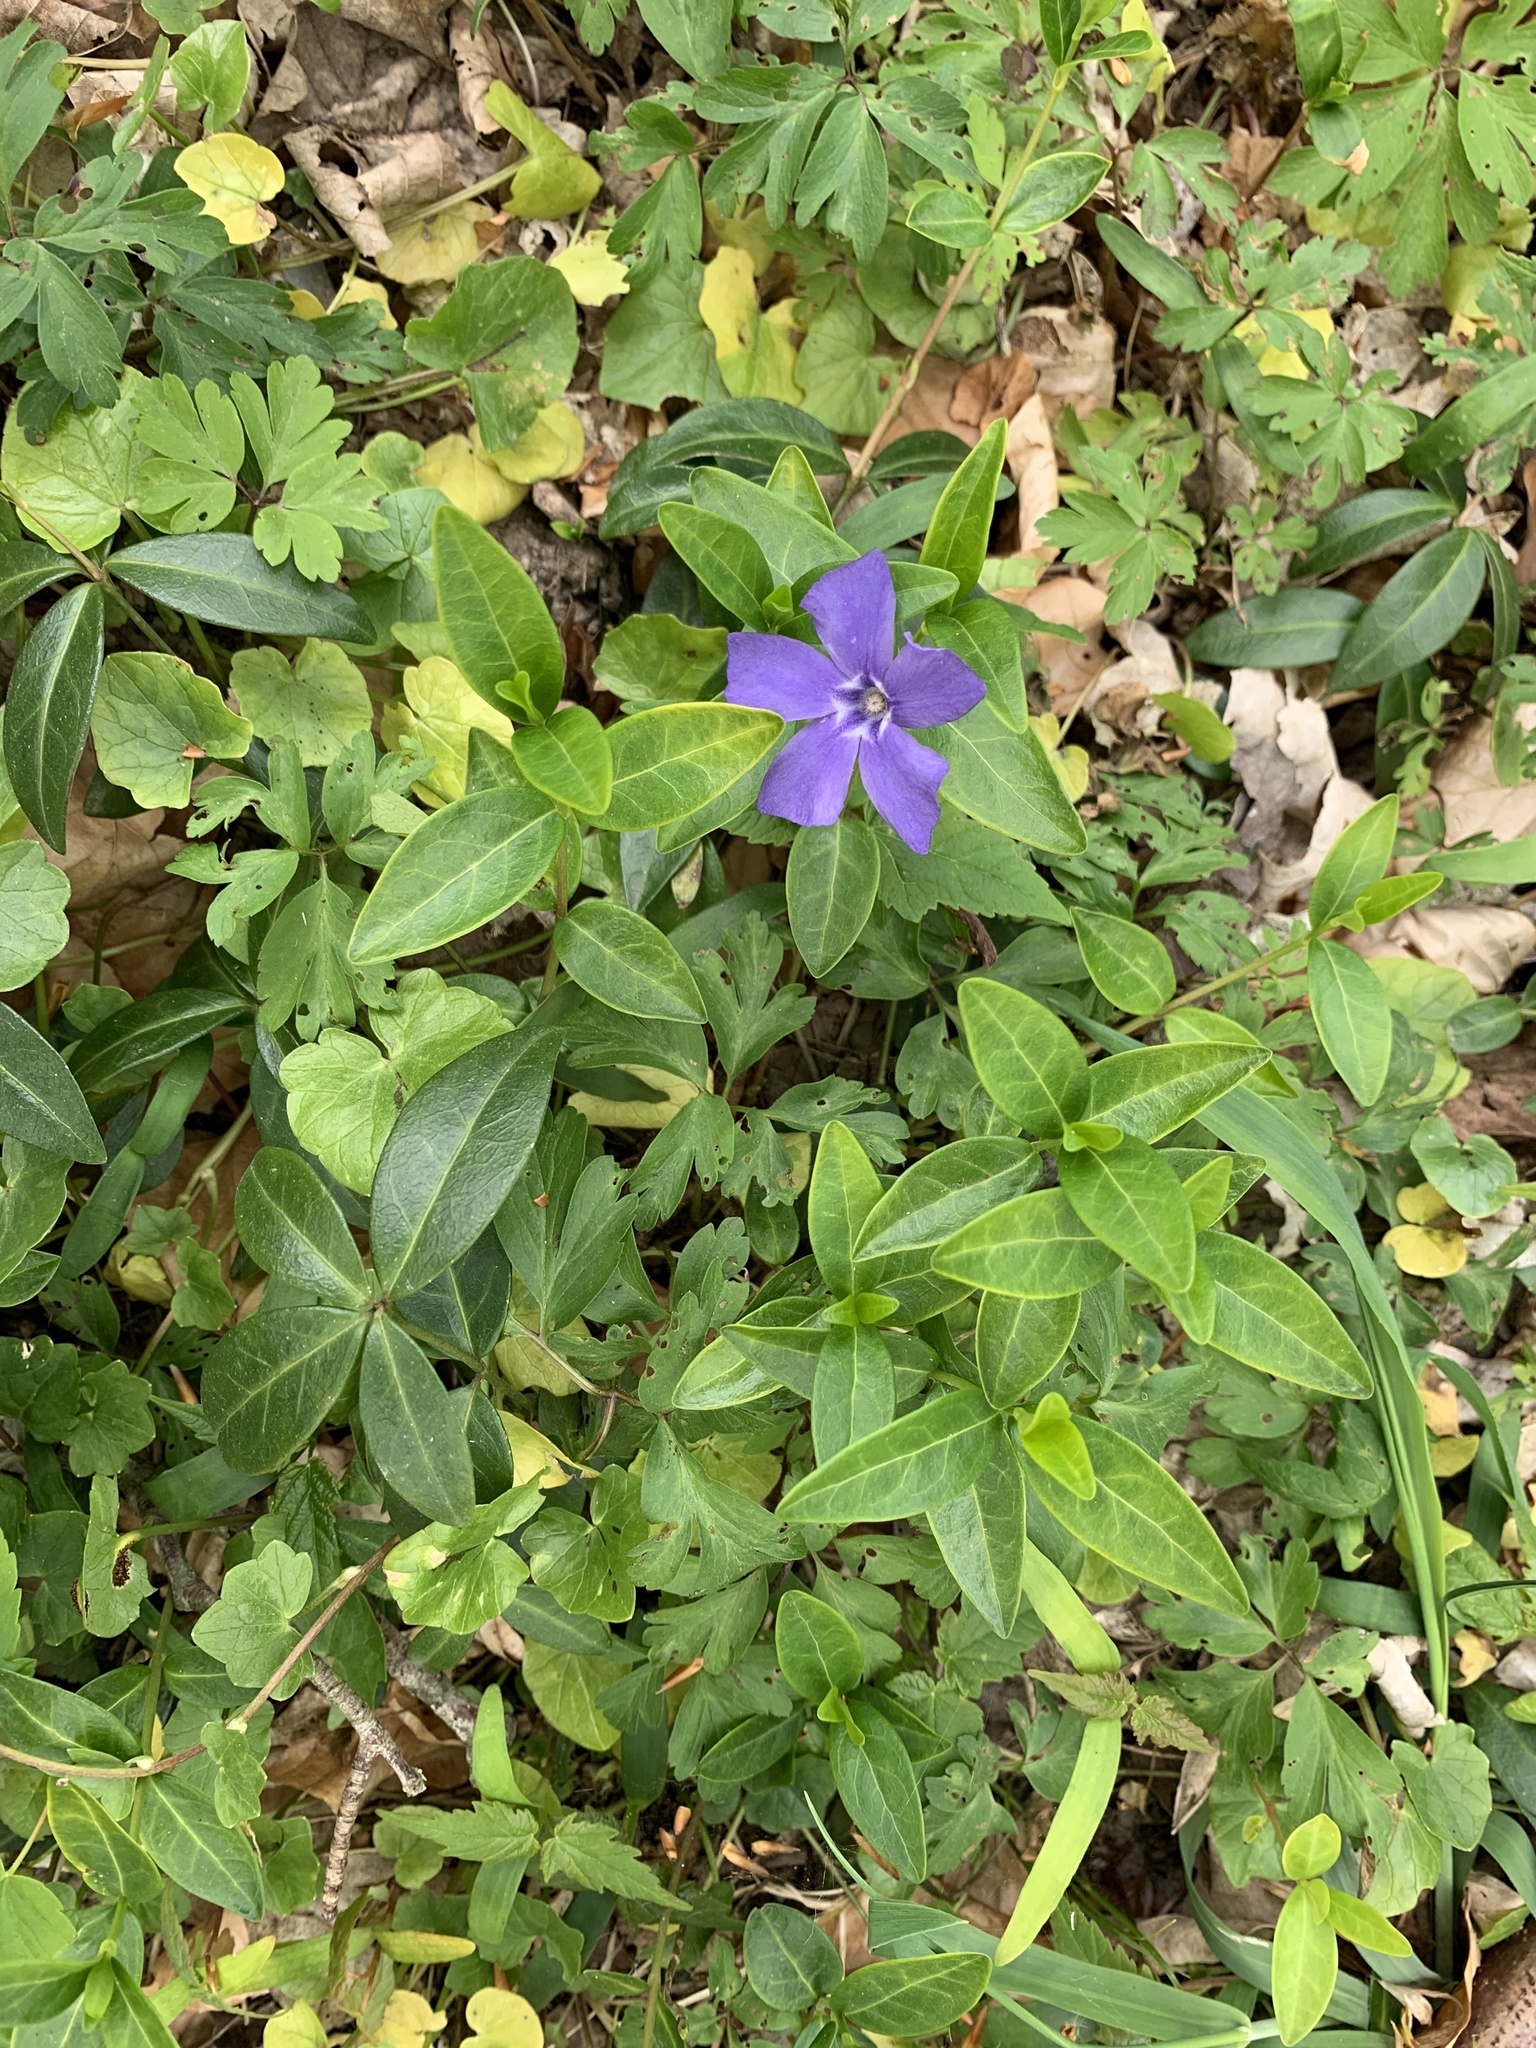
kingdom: Plantae
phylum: Tracheophyta
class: Magnoliopsida
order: Gentianales
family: Apocynaceae
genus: Vinca
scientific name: Vinca minor
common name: Lesser periwinkle
